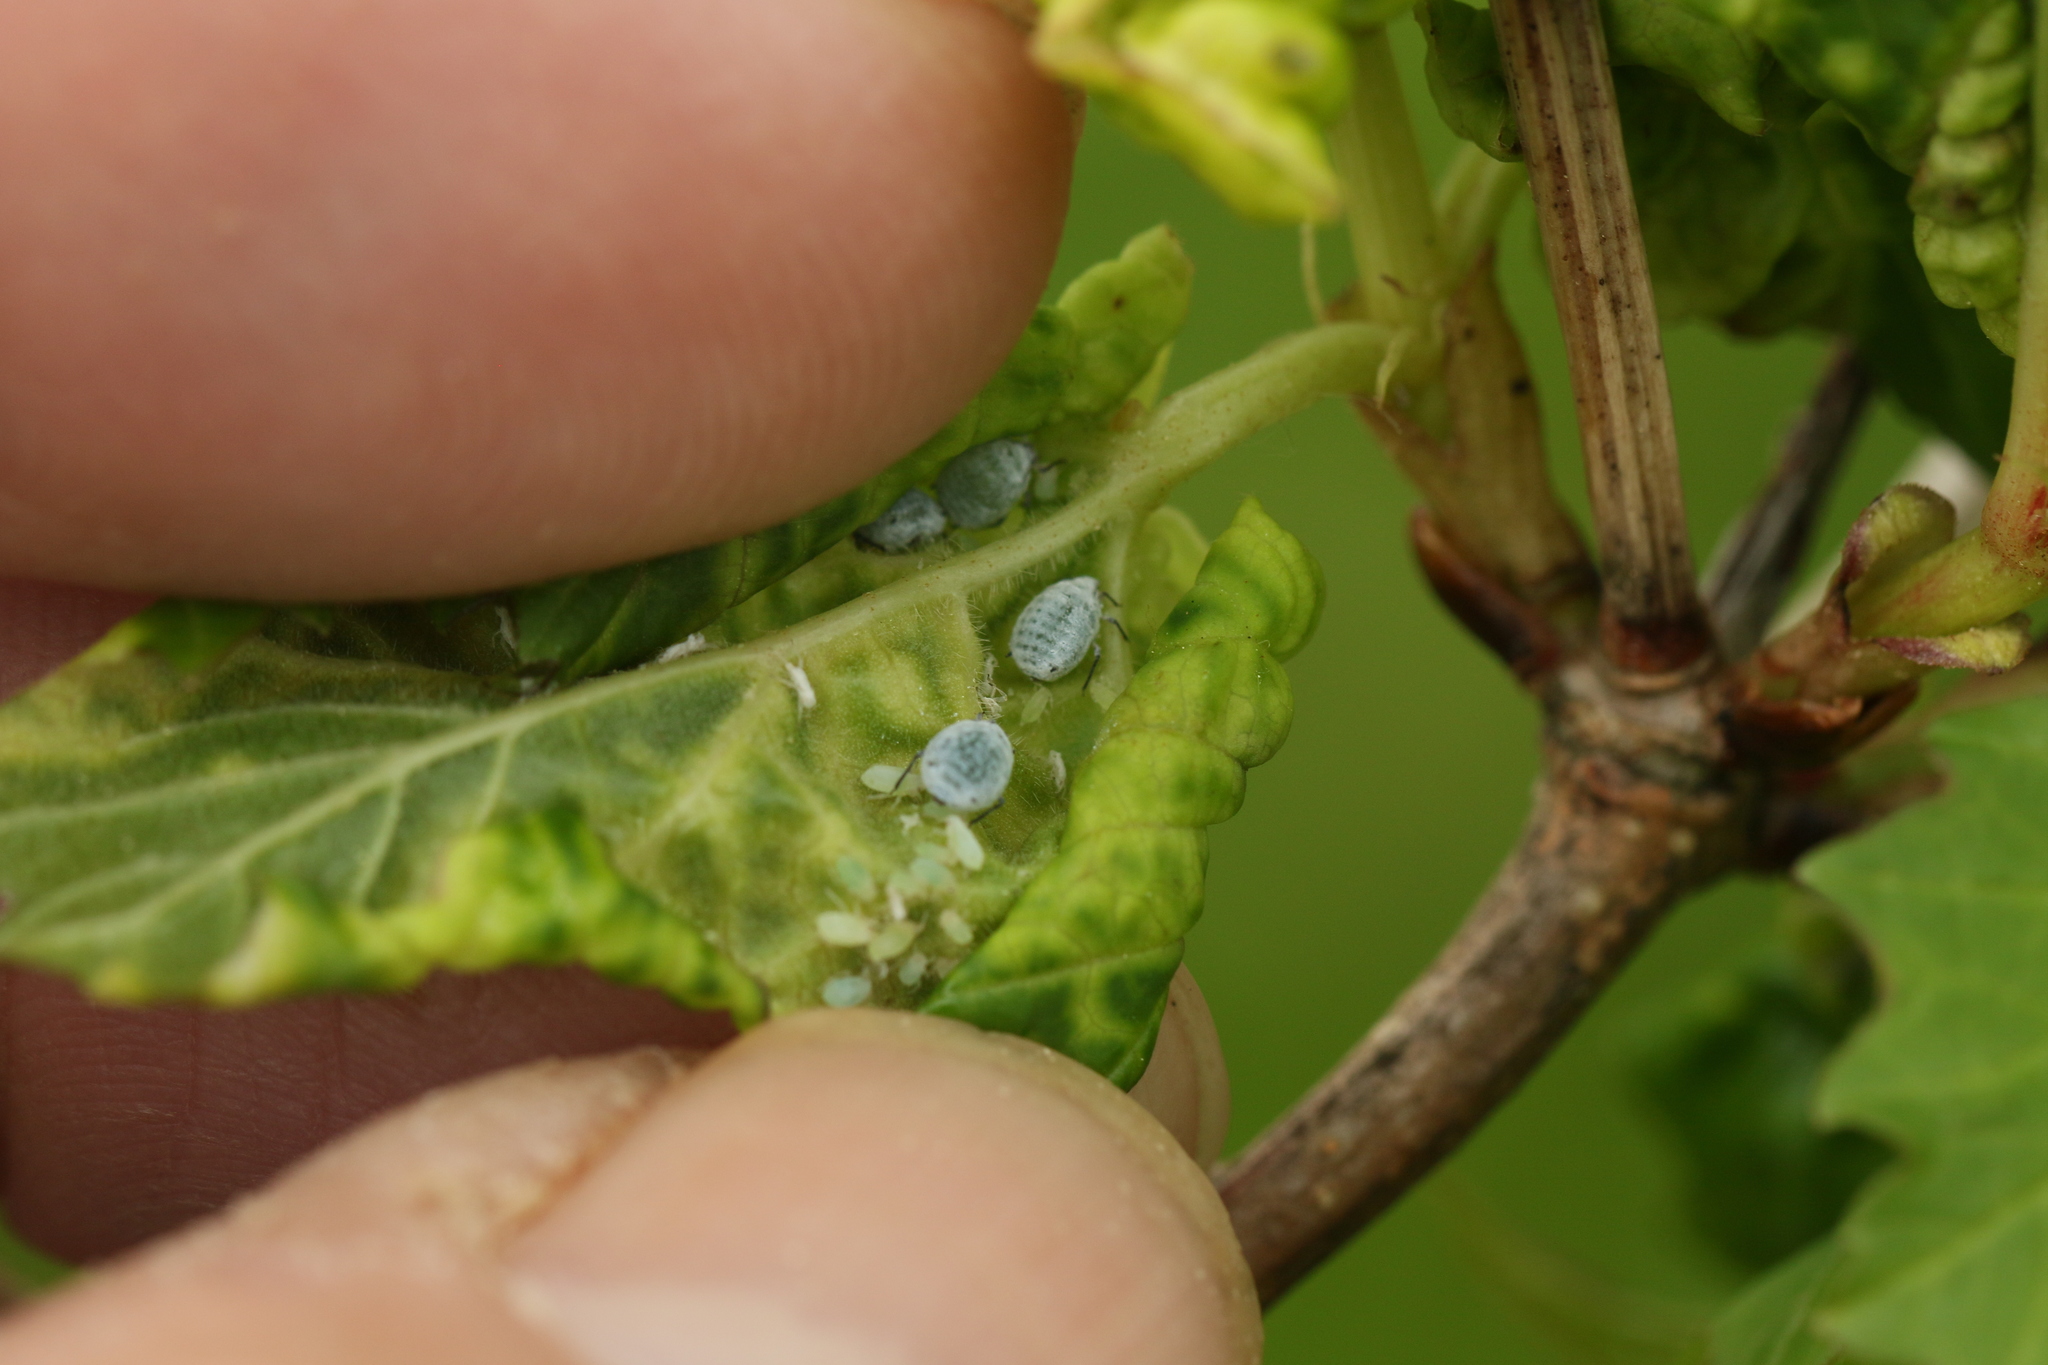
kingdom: Animalia
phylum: Arthropoda
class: Insecta
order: Hemiptera
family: Aphididae
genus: Neoceruraphis
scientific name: Neoceruraphis viburnicola
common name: Snowball aphid
